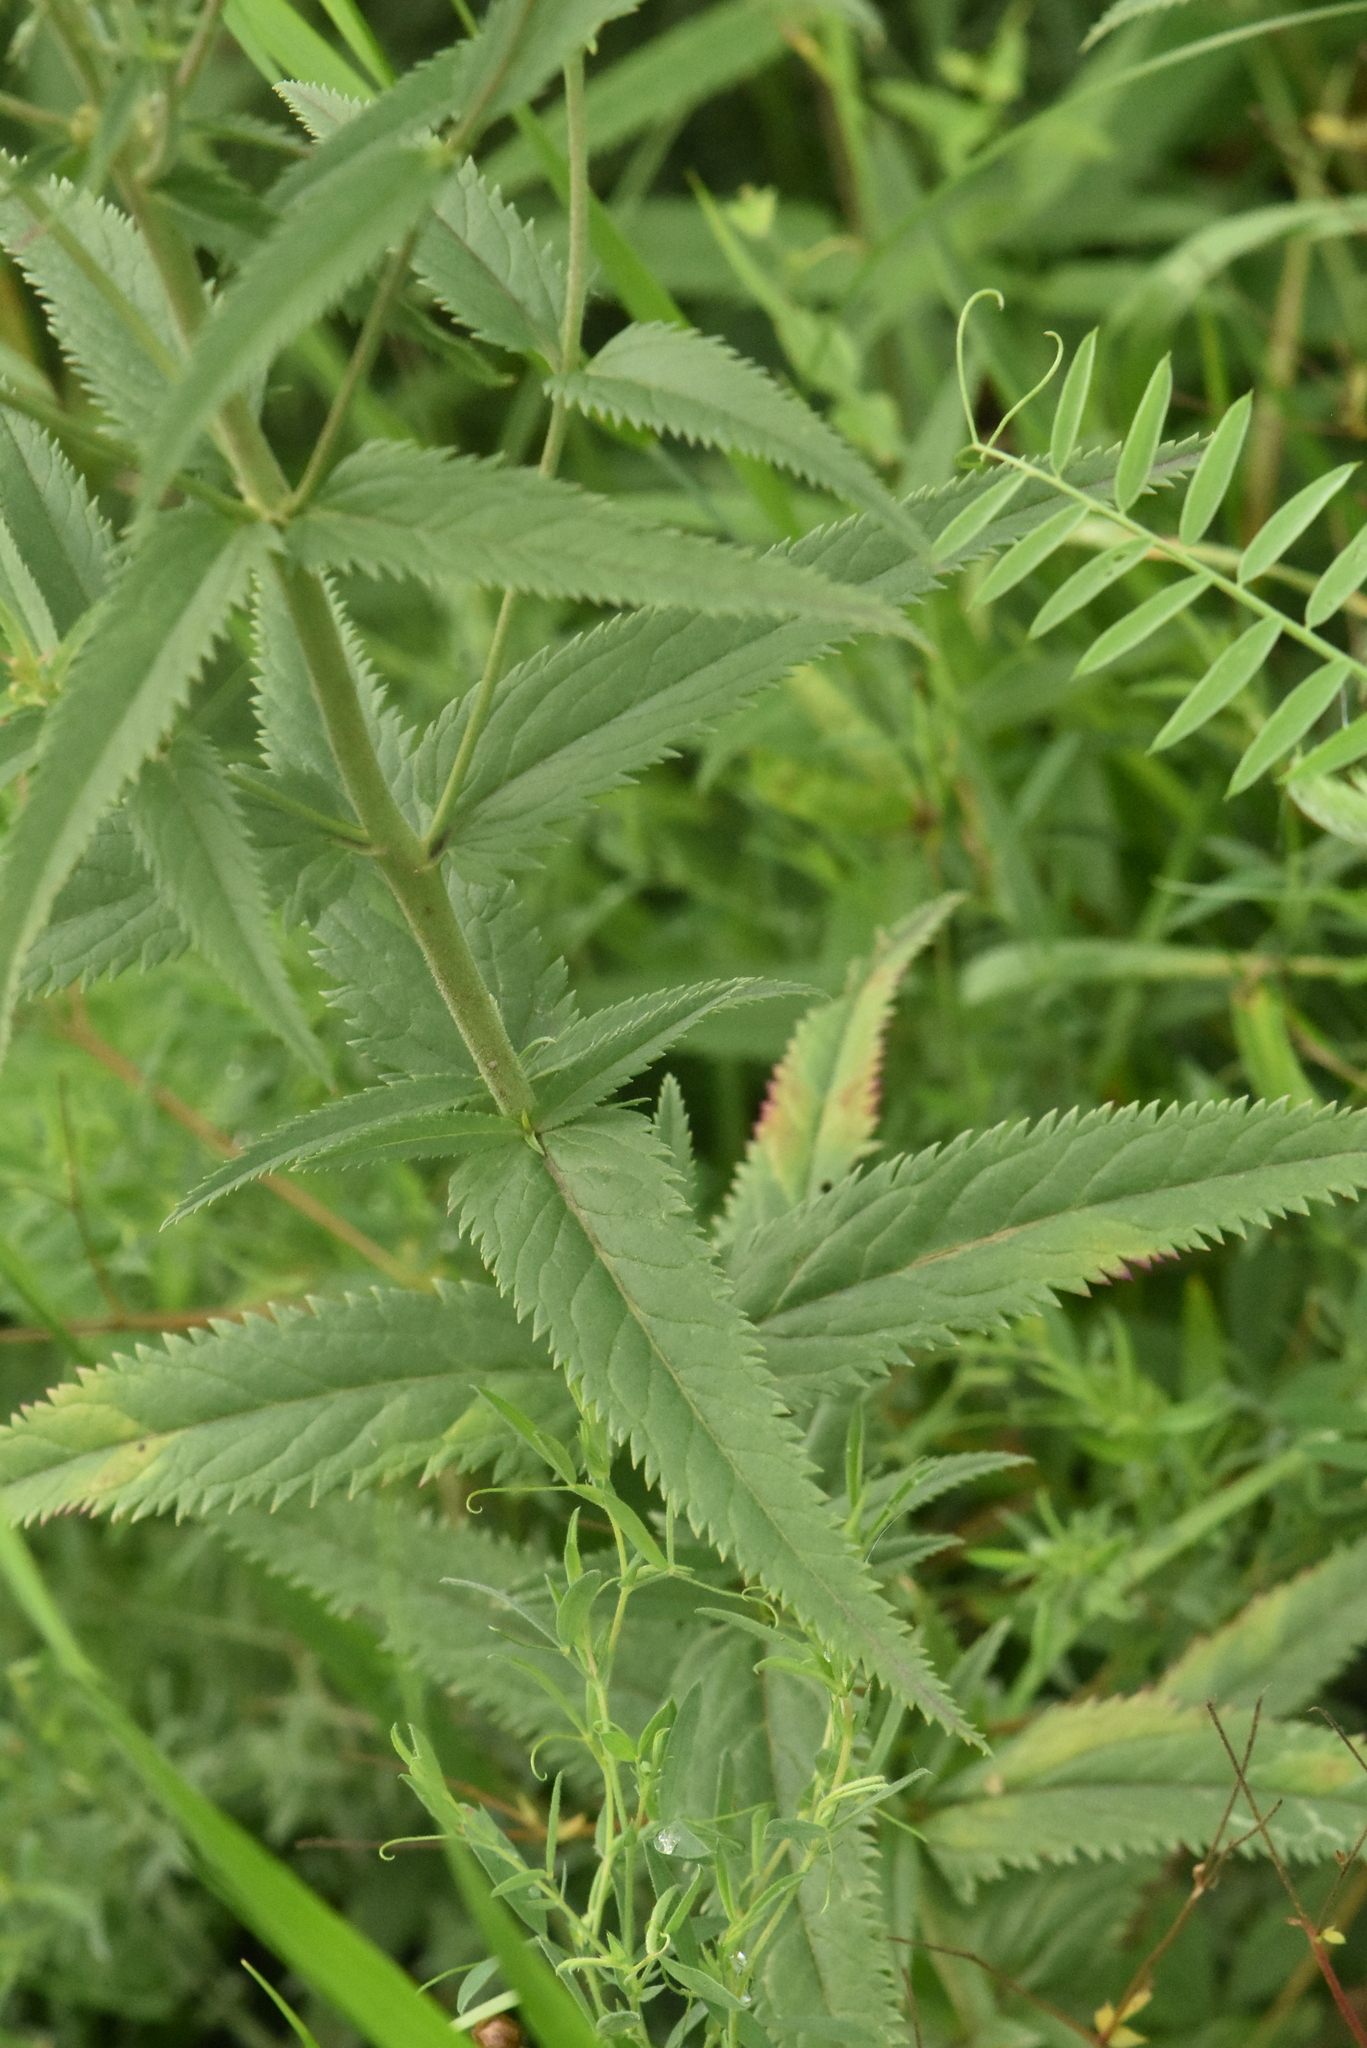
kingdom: Plantae
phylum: Tracheophyta
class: Magnoliopsida
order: Lamiales
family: Plantaginaceae
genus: Veronica
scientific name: Veronica longifolia
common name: Garden speedwell
